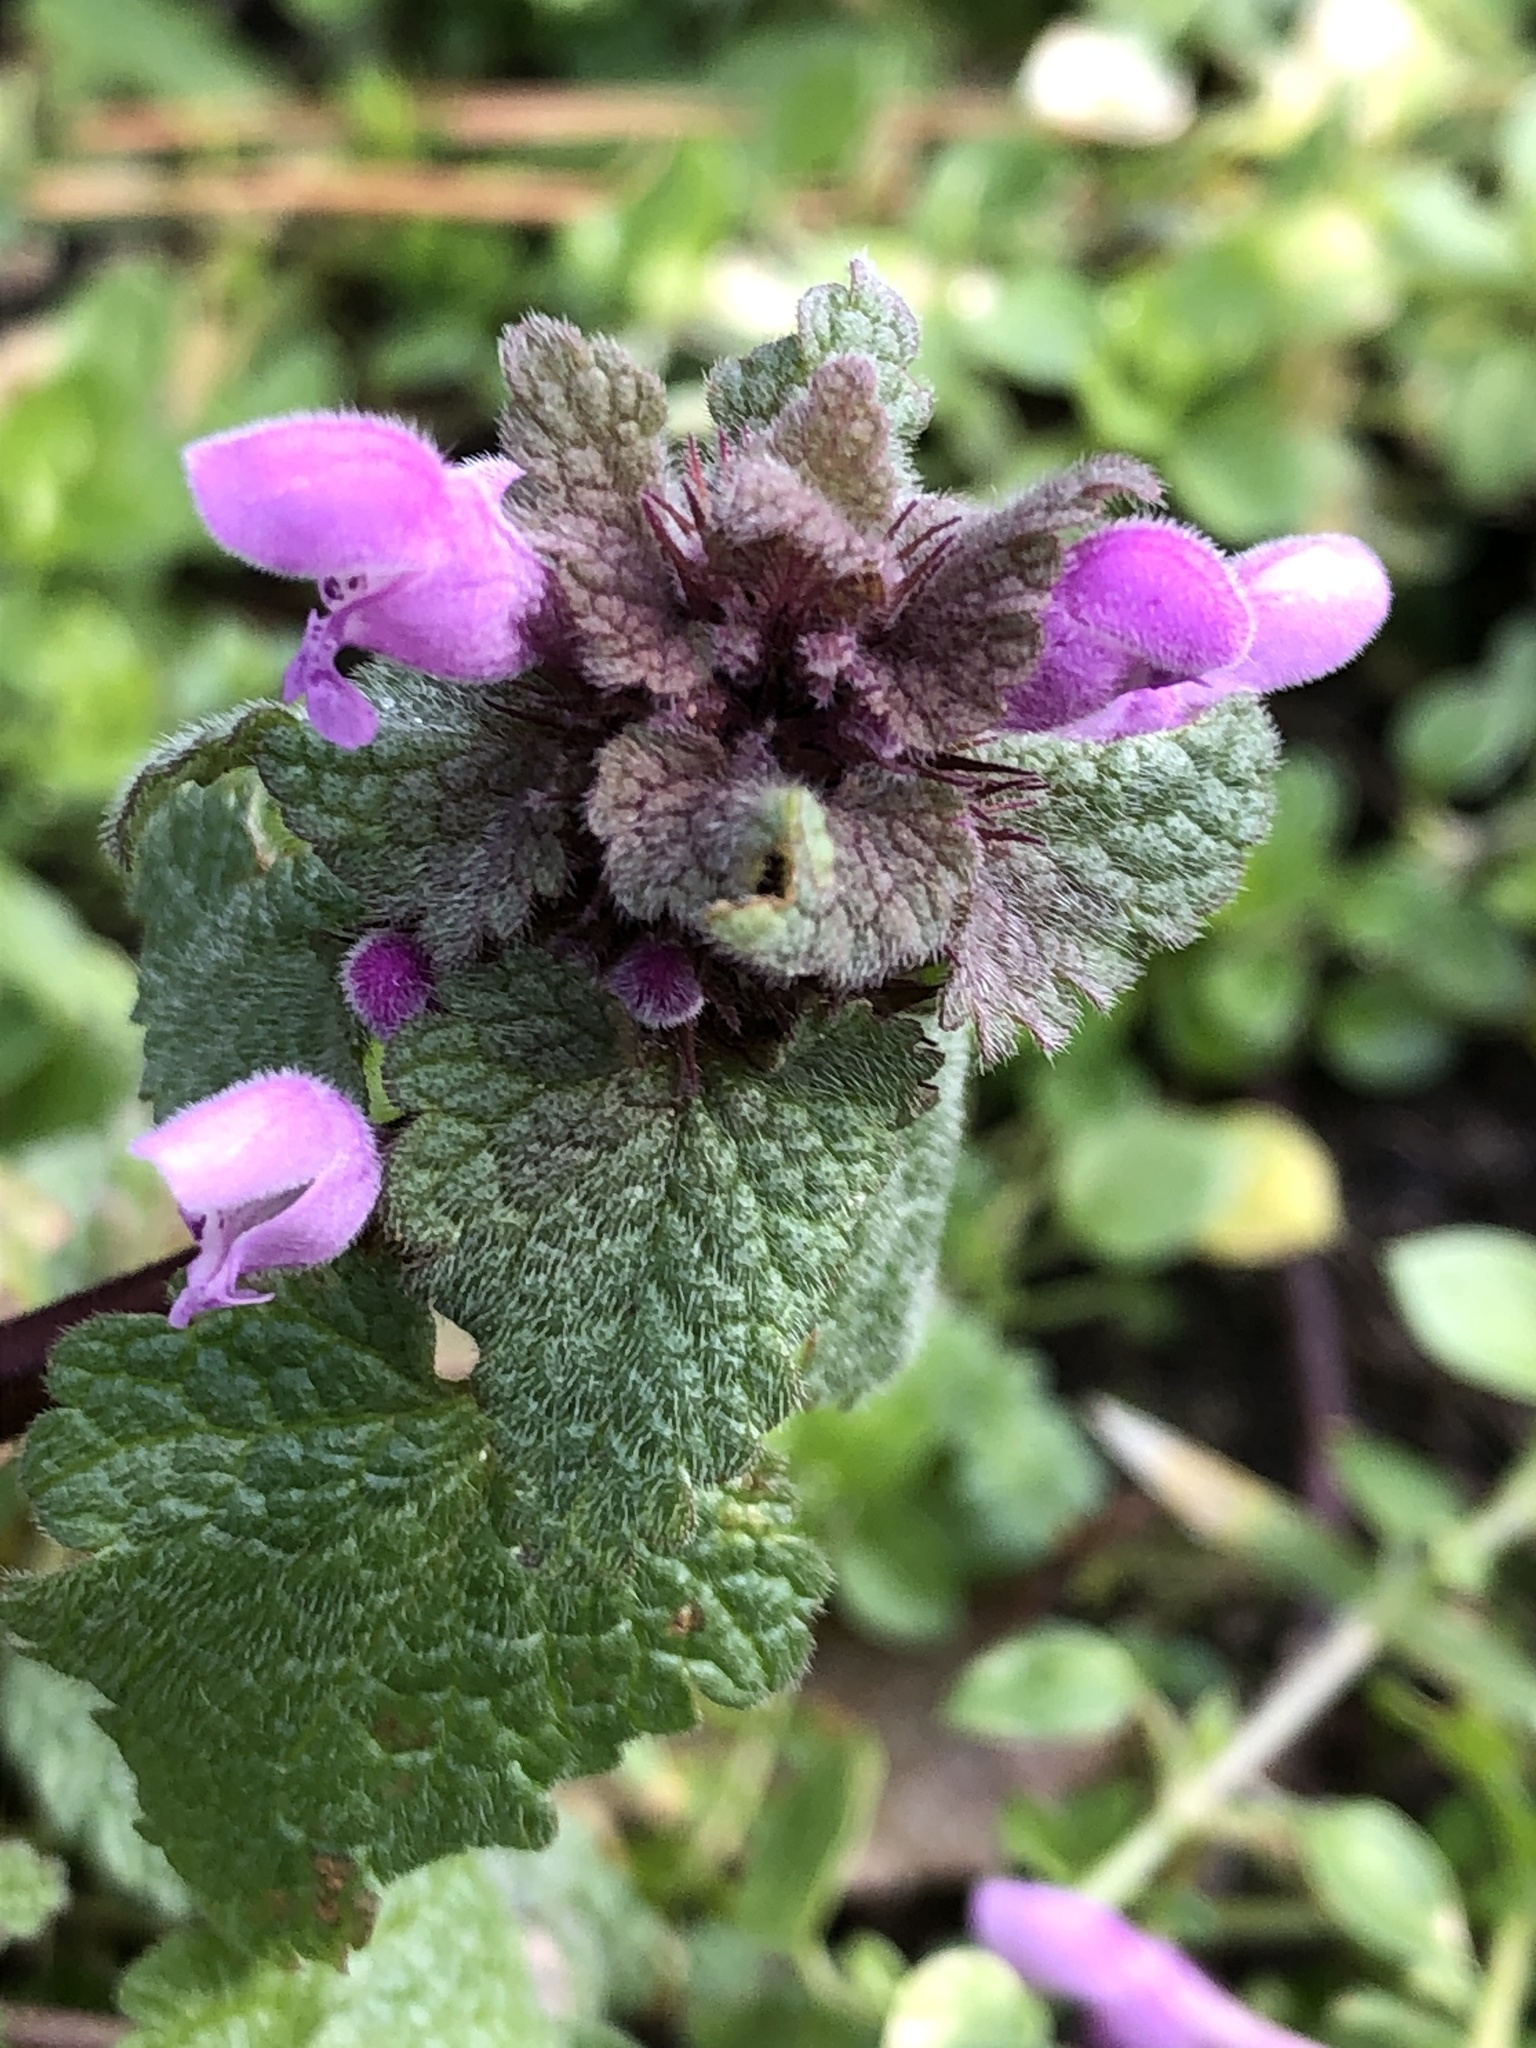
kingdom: Plantae
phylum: Tracheophyta
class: Magnoliopsida
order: Lamiales
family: Lamiaceae
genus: Lamium
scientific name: Lamium purpureum
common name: Red dead-nettle
